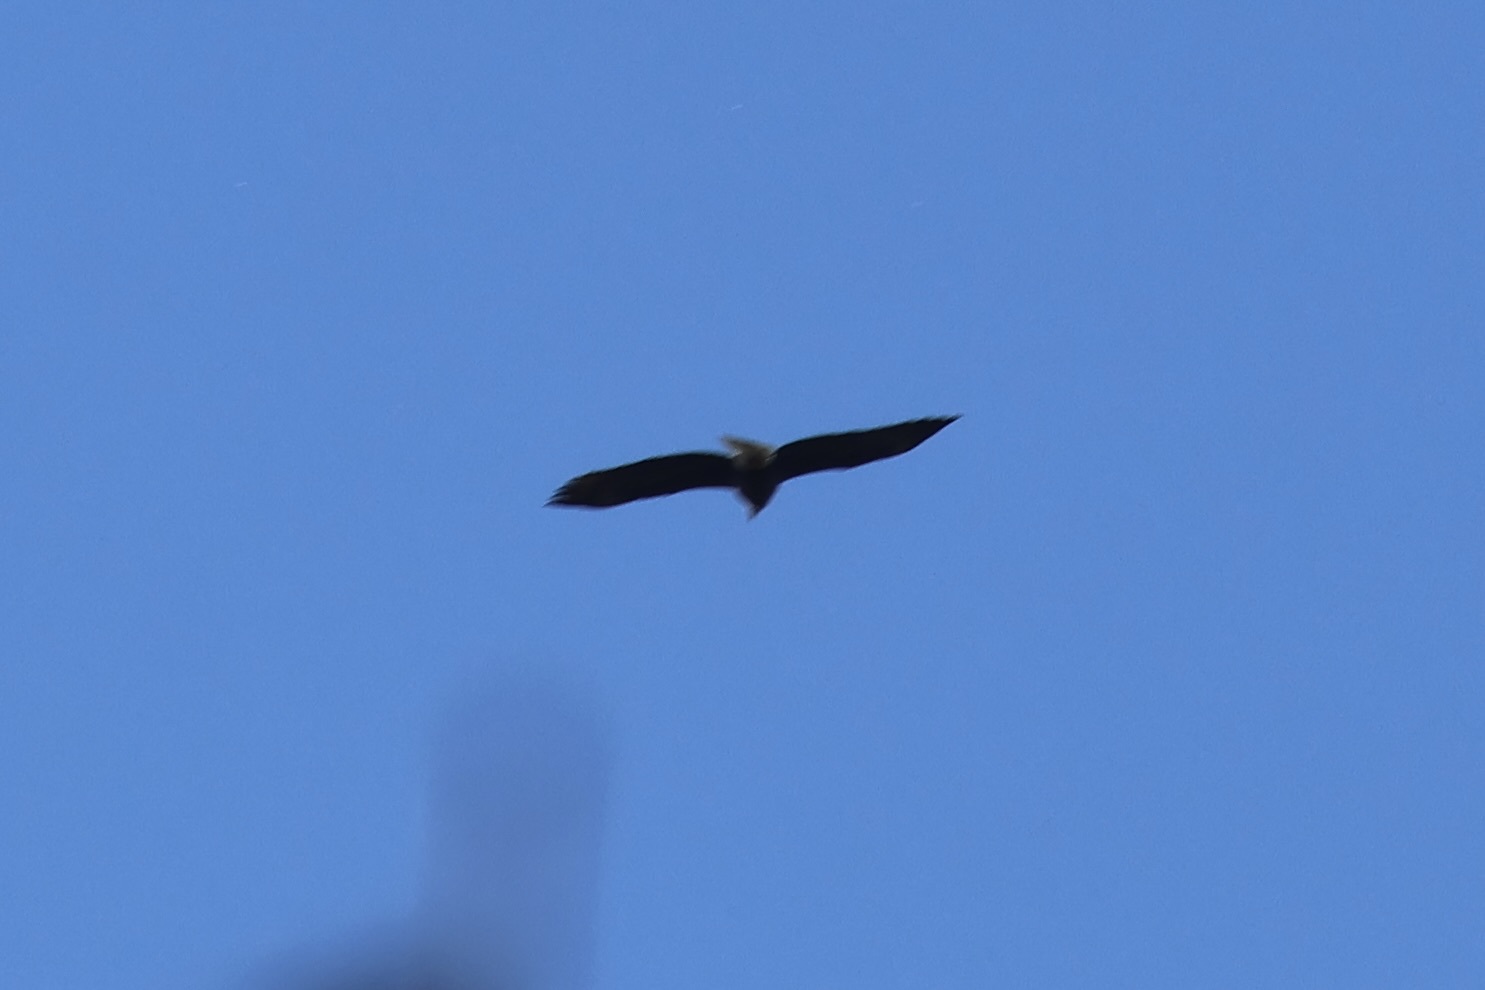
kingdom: Animalia
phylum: Chordata
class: Aves
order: Accipitriformes
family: Accipitridae
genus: Haliaeetus
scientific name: Haliaeetus leucocephalus
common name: Bald eagle
